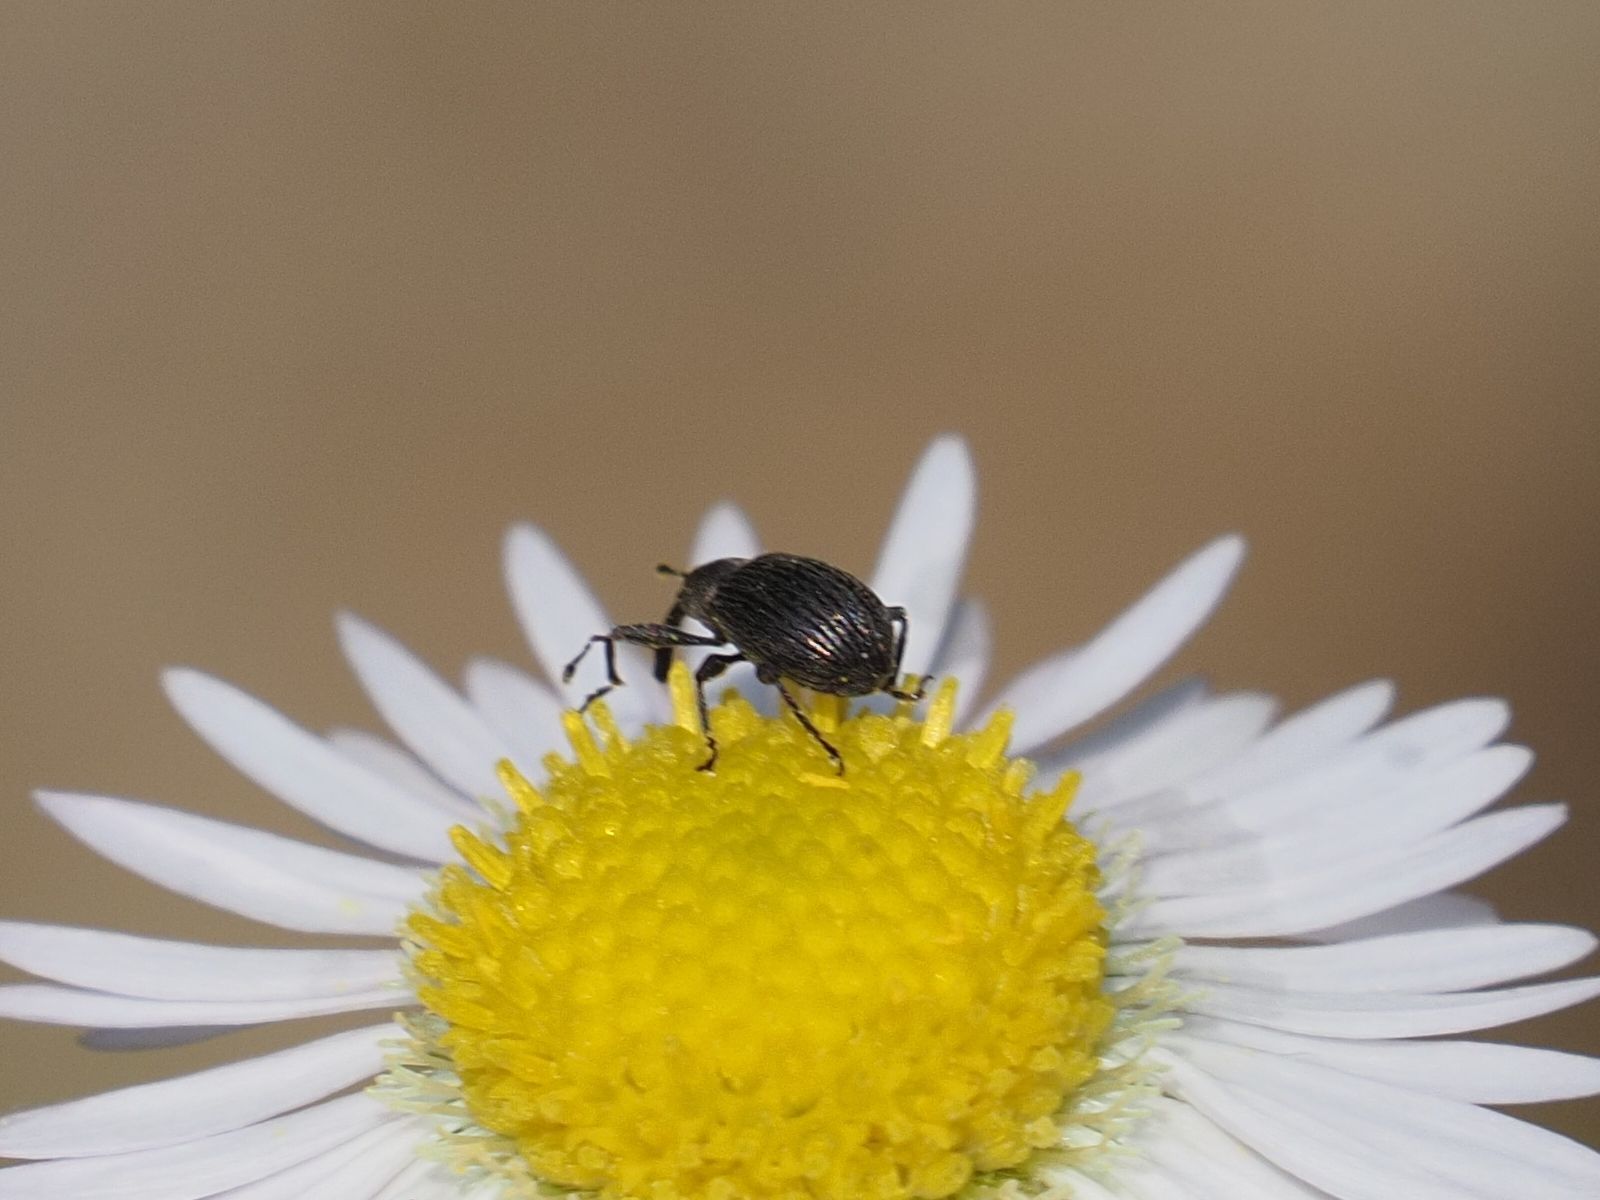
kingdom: Animalia
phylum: Arthropoda
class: Insecta
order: Coleoptera
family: Curculionidae
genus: Anthonomus
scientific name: Anthonomus rubi
